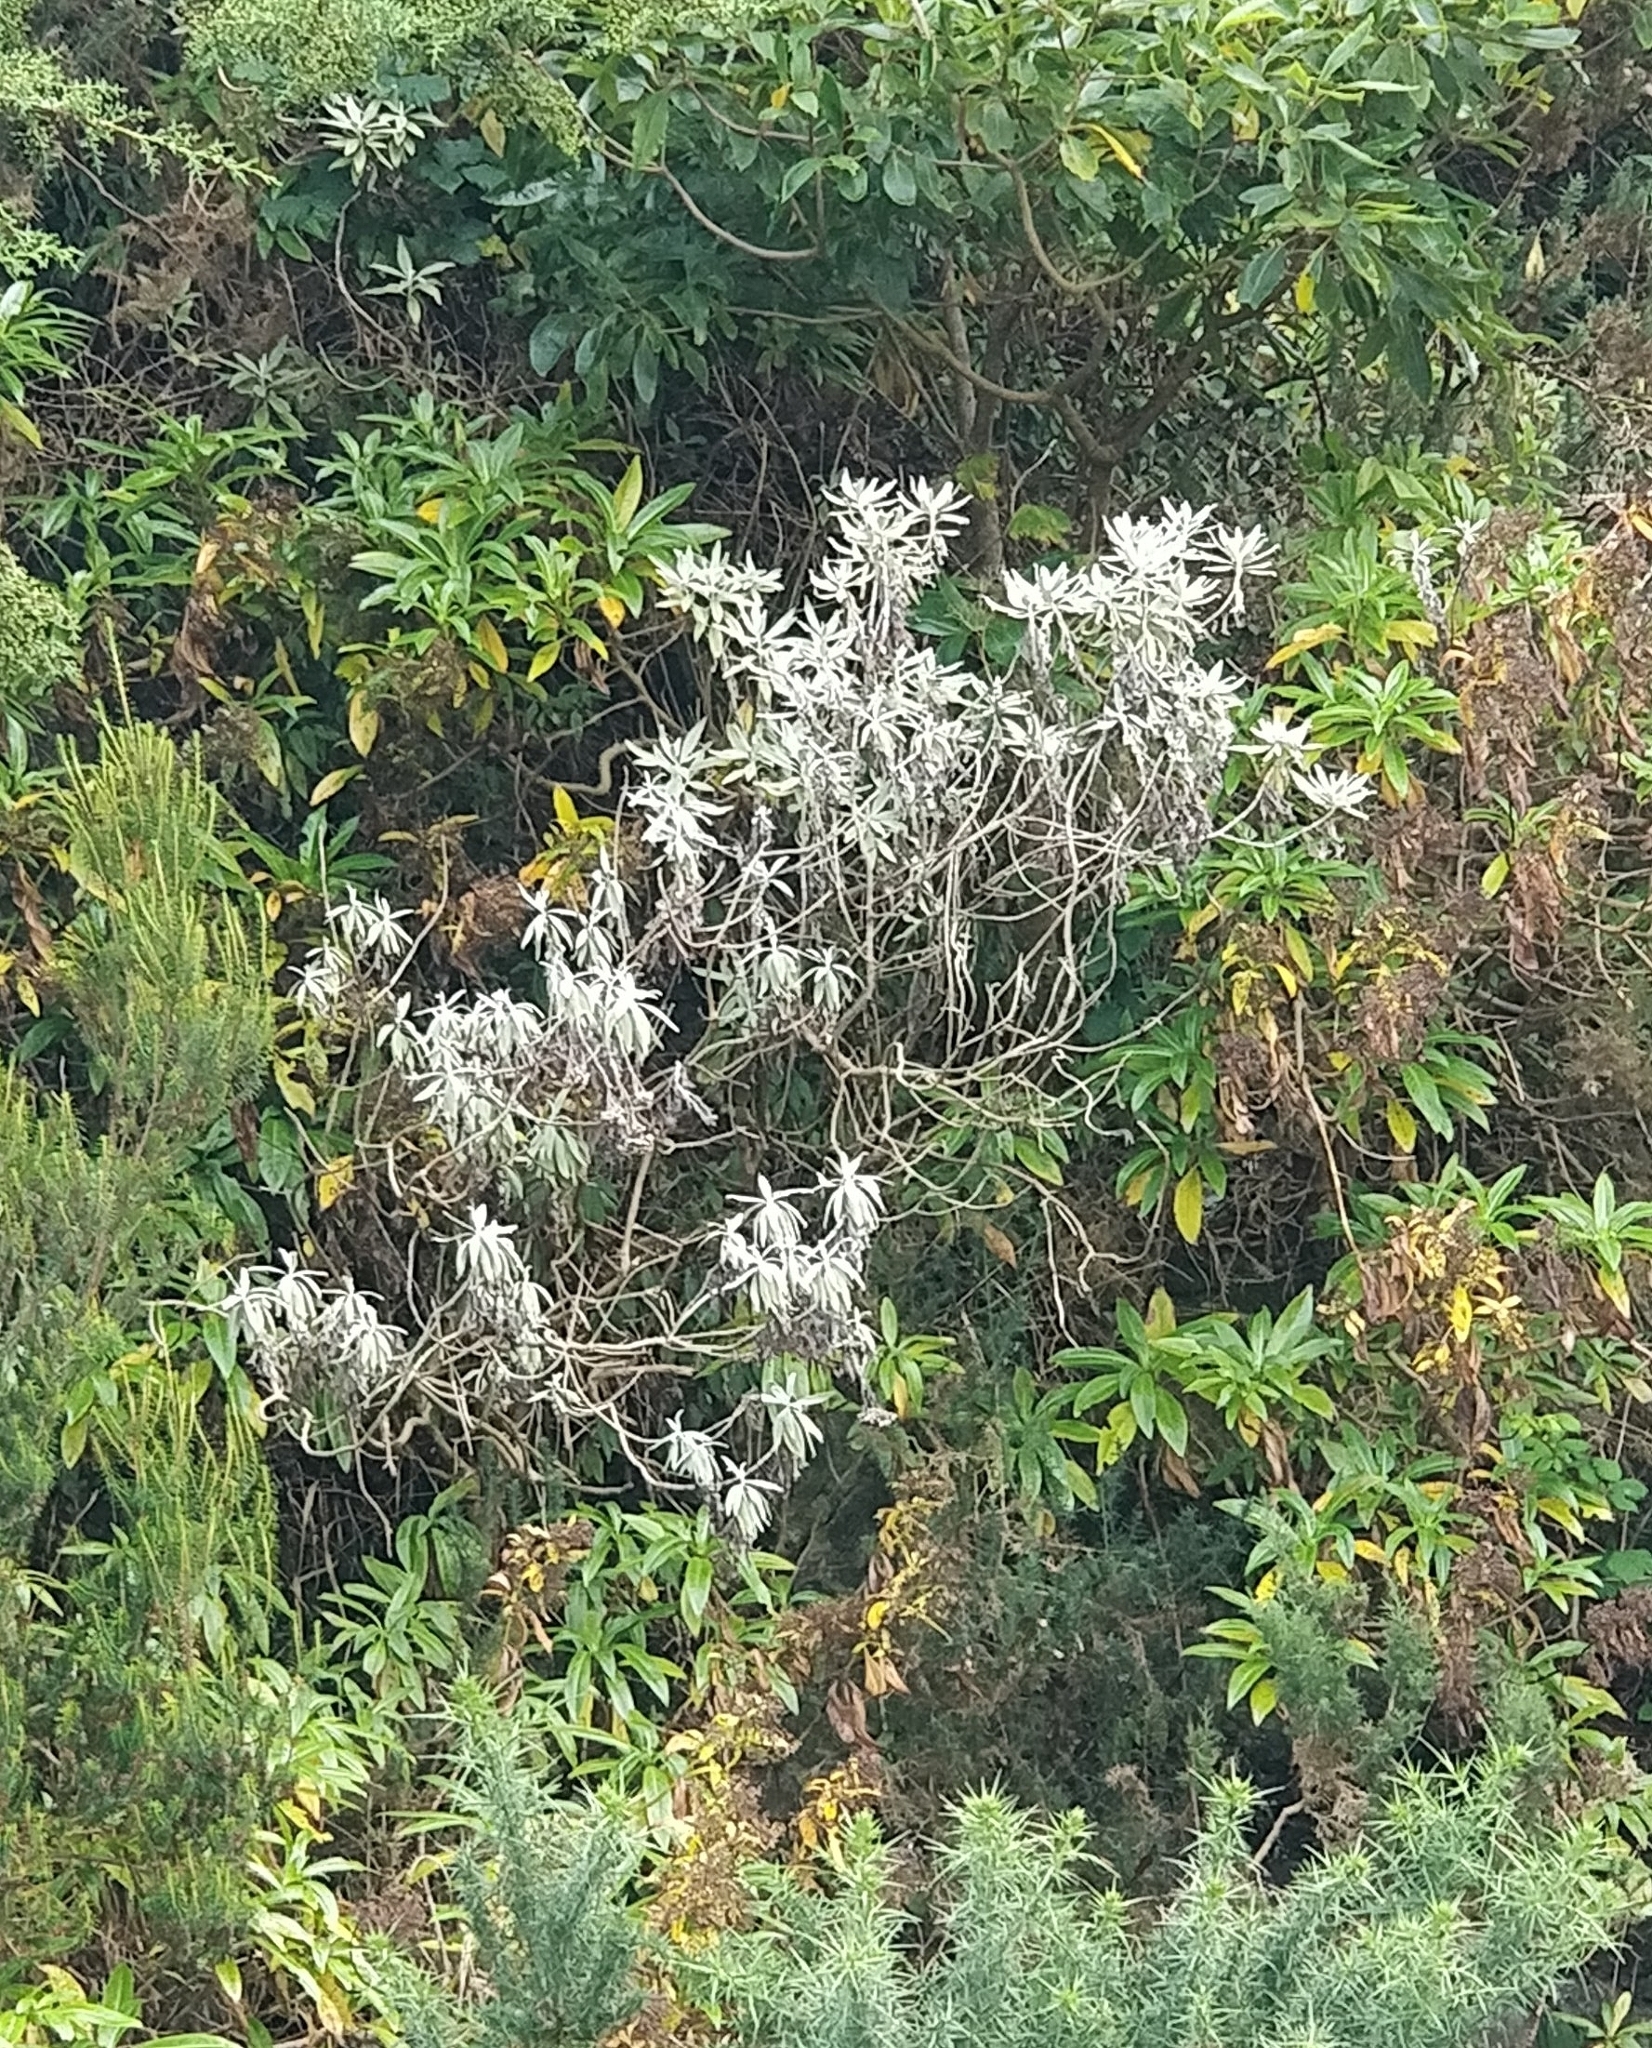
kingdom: Plantae
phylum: Tracheophyta
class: Magnoliopsida
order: Asterales
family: Asteraceae
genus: Helichrysum
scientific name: Helichrysum melaleucum
